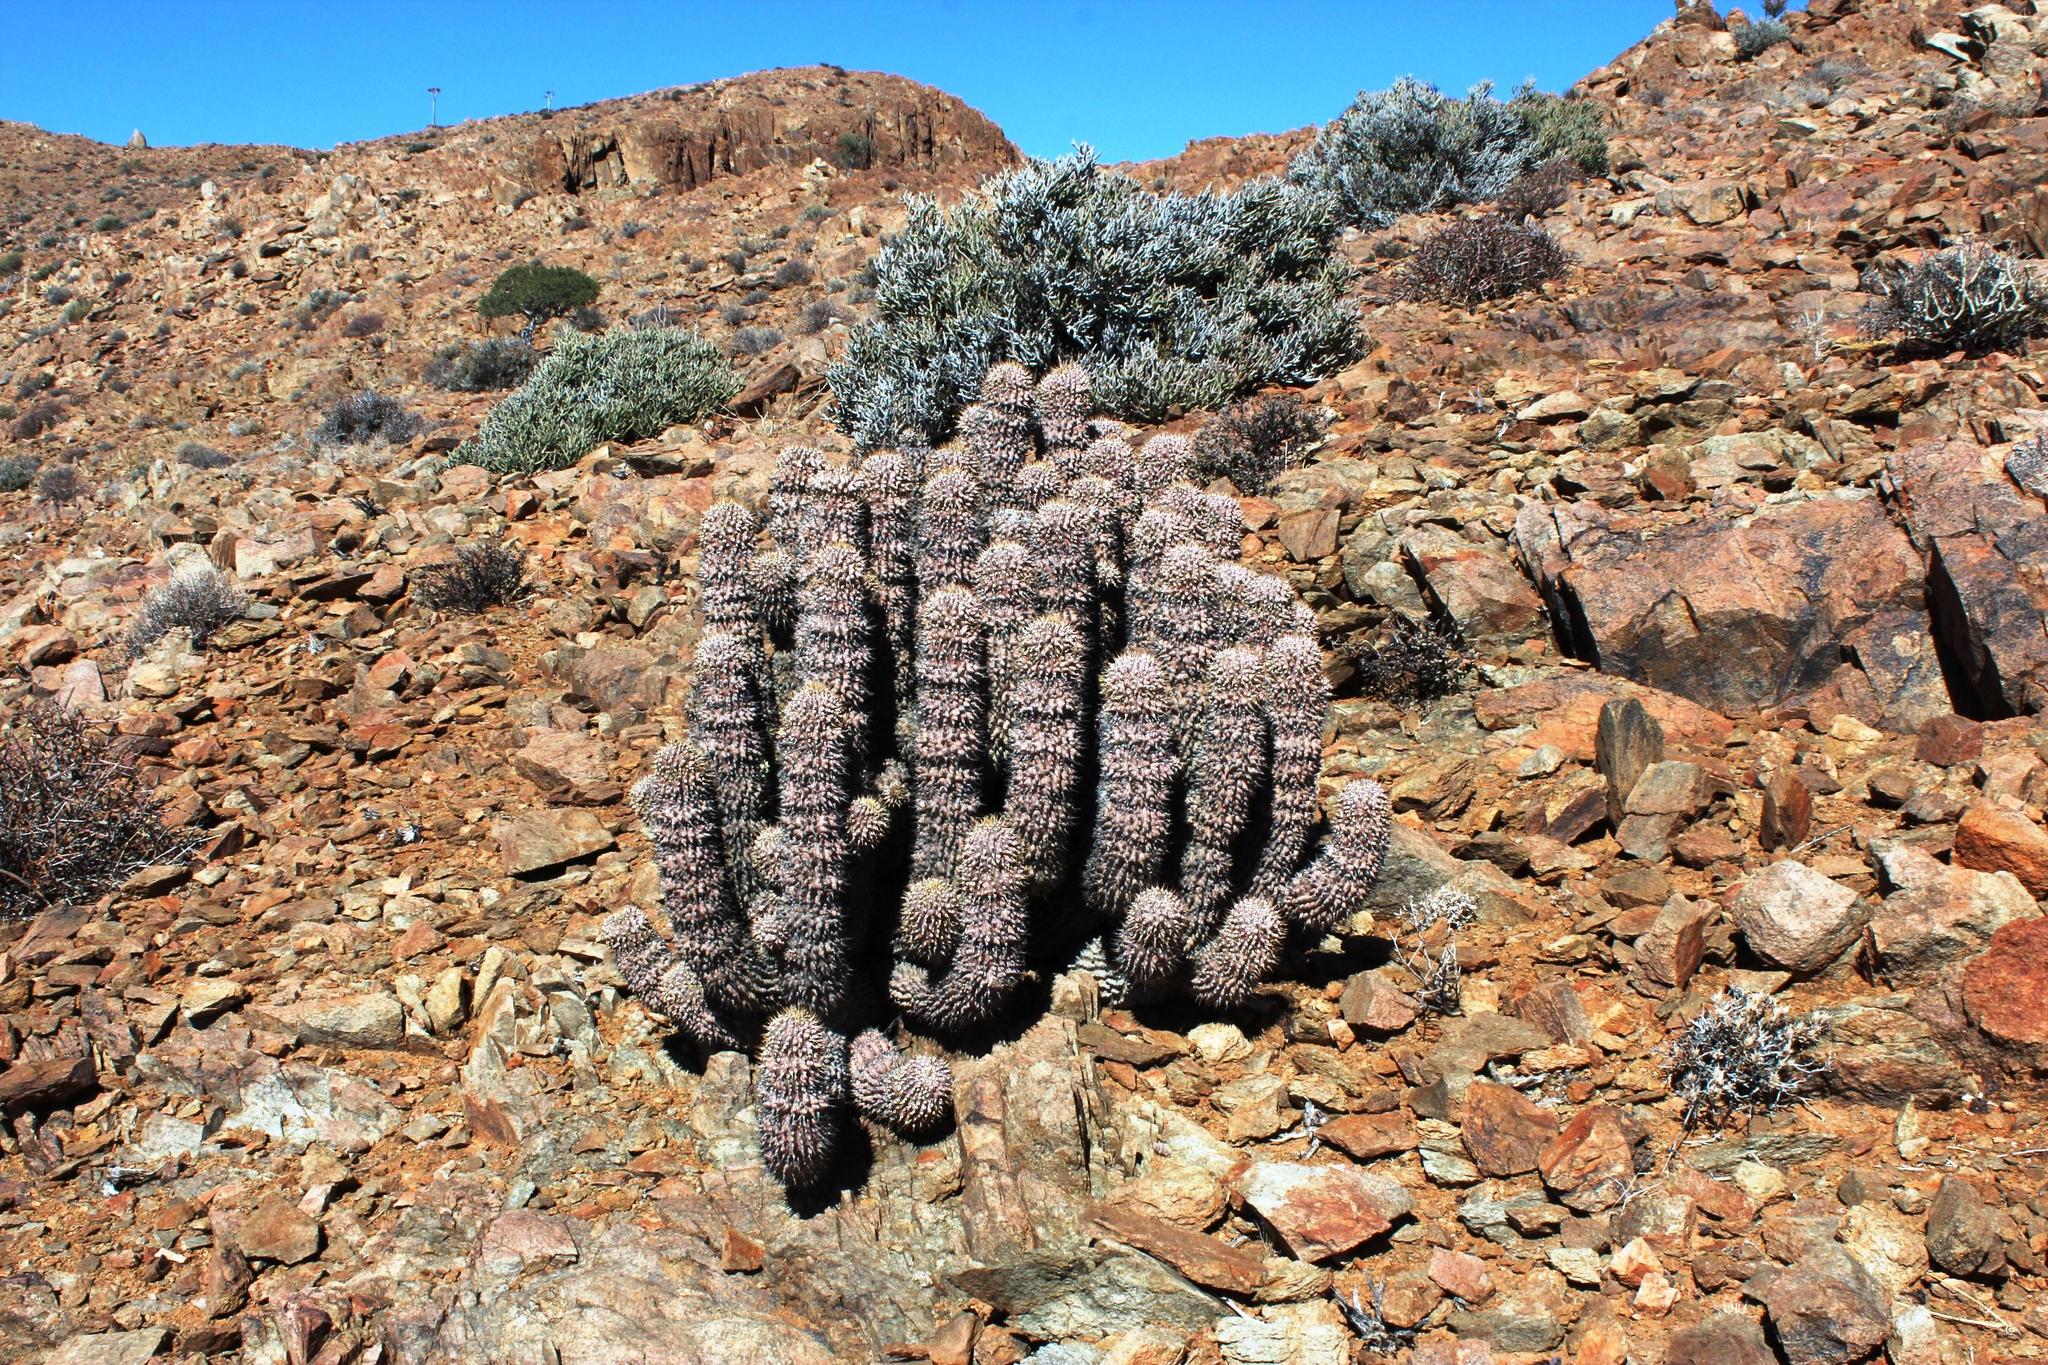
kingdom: Plantae
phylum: Tracheophyta
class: Magnoliopsida
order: Gentianales
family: Apocynaceae
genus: Ceropegia
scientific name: Ceropegia alstonii
